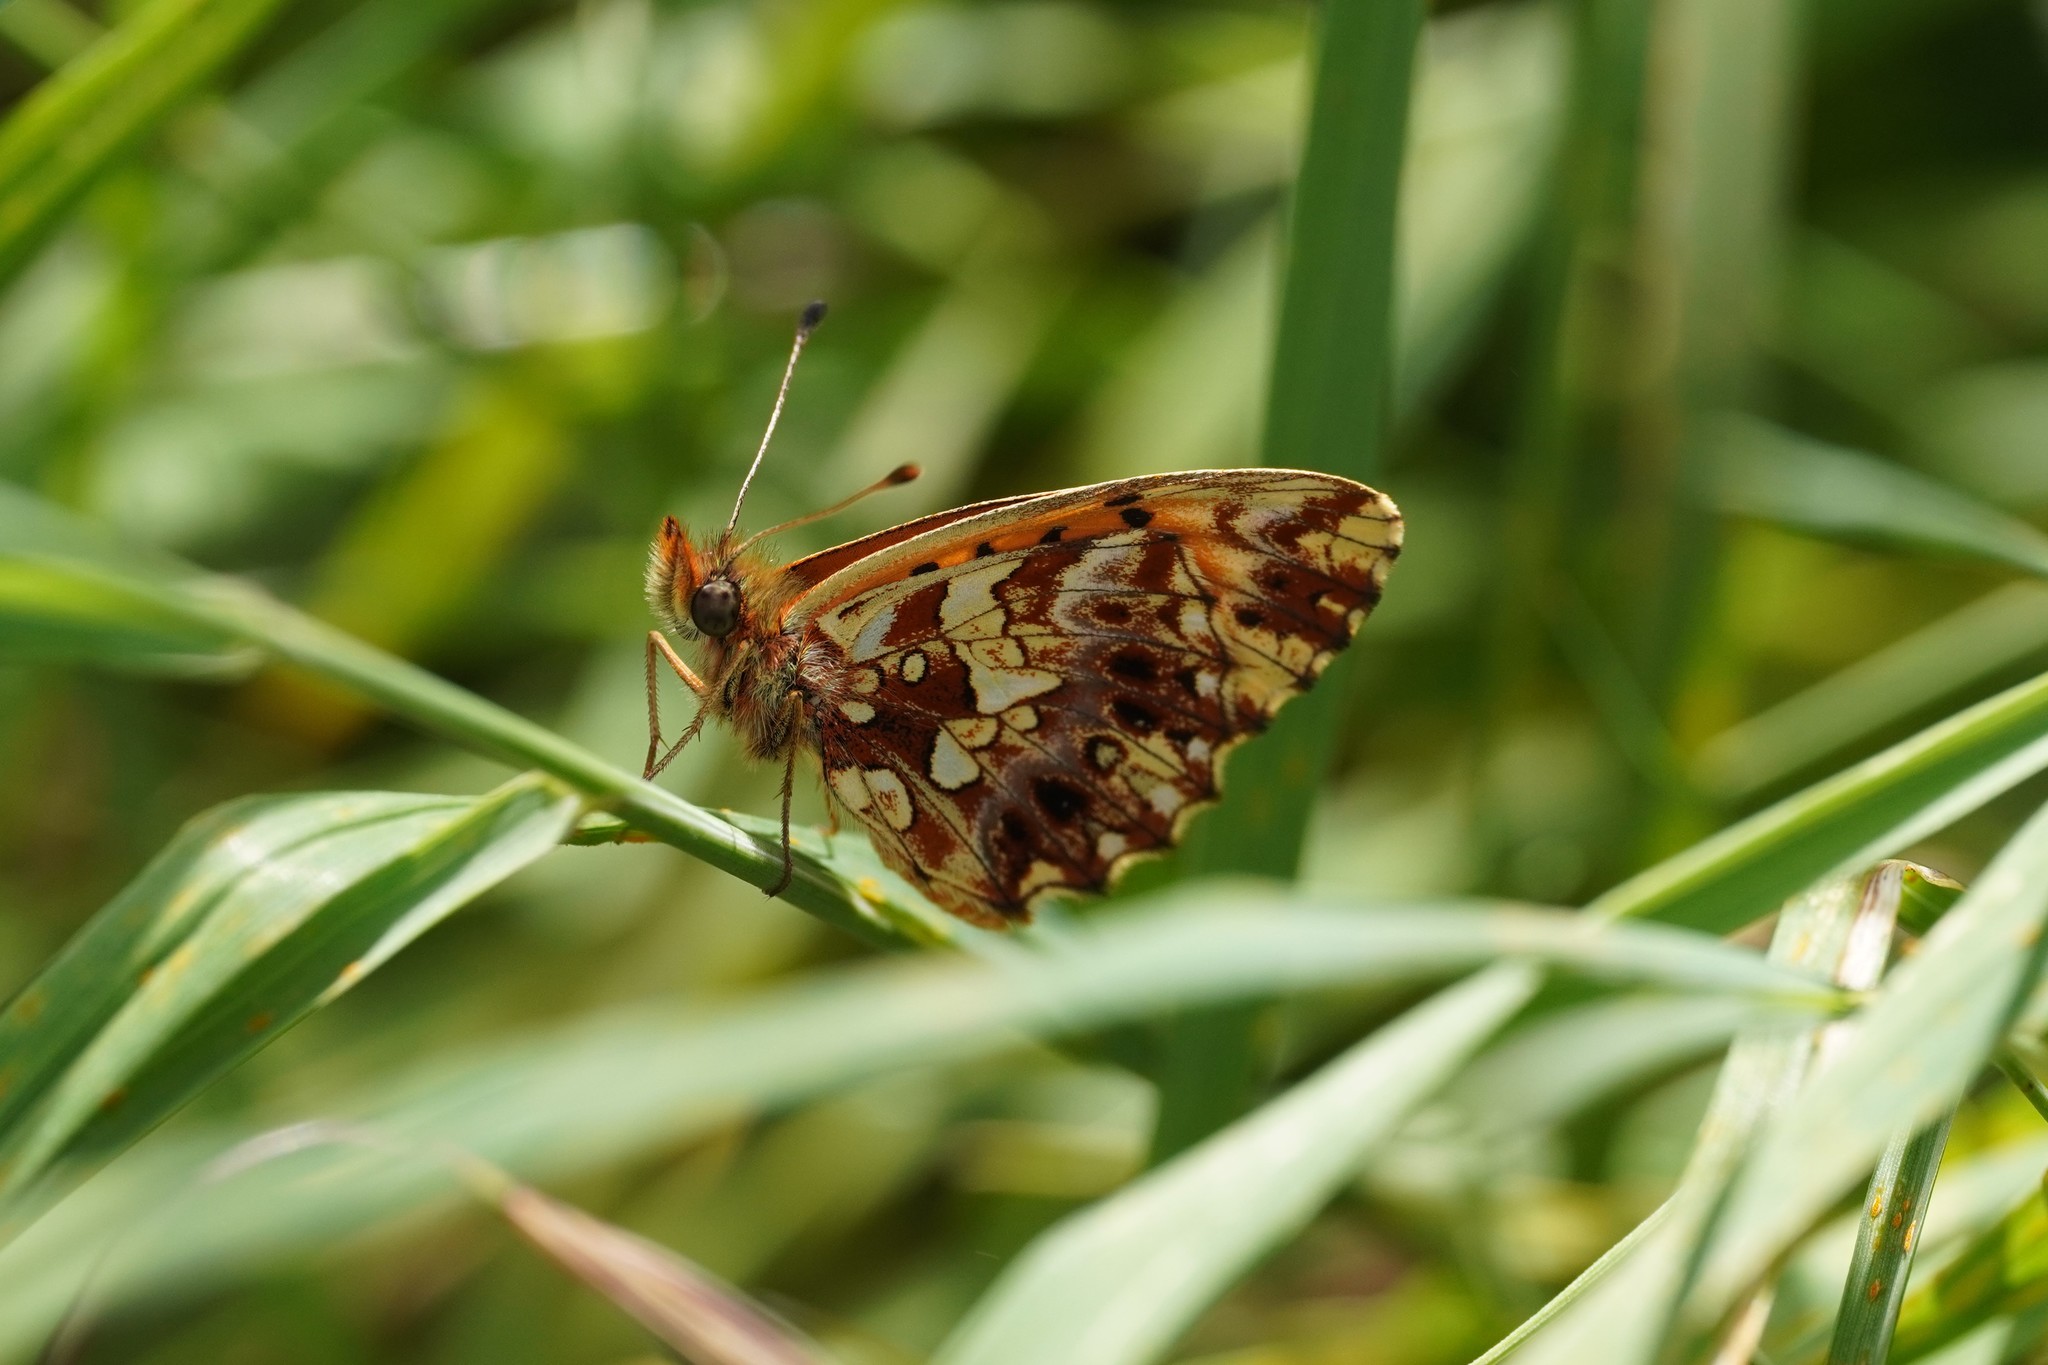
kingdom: Animalia
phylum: Arthropoda
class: Insecta
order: Lepidoptera
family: Nymphalidae
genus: Boloria
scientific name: Boloria dia
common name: Weaver's fritillary
